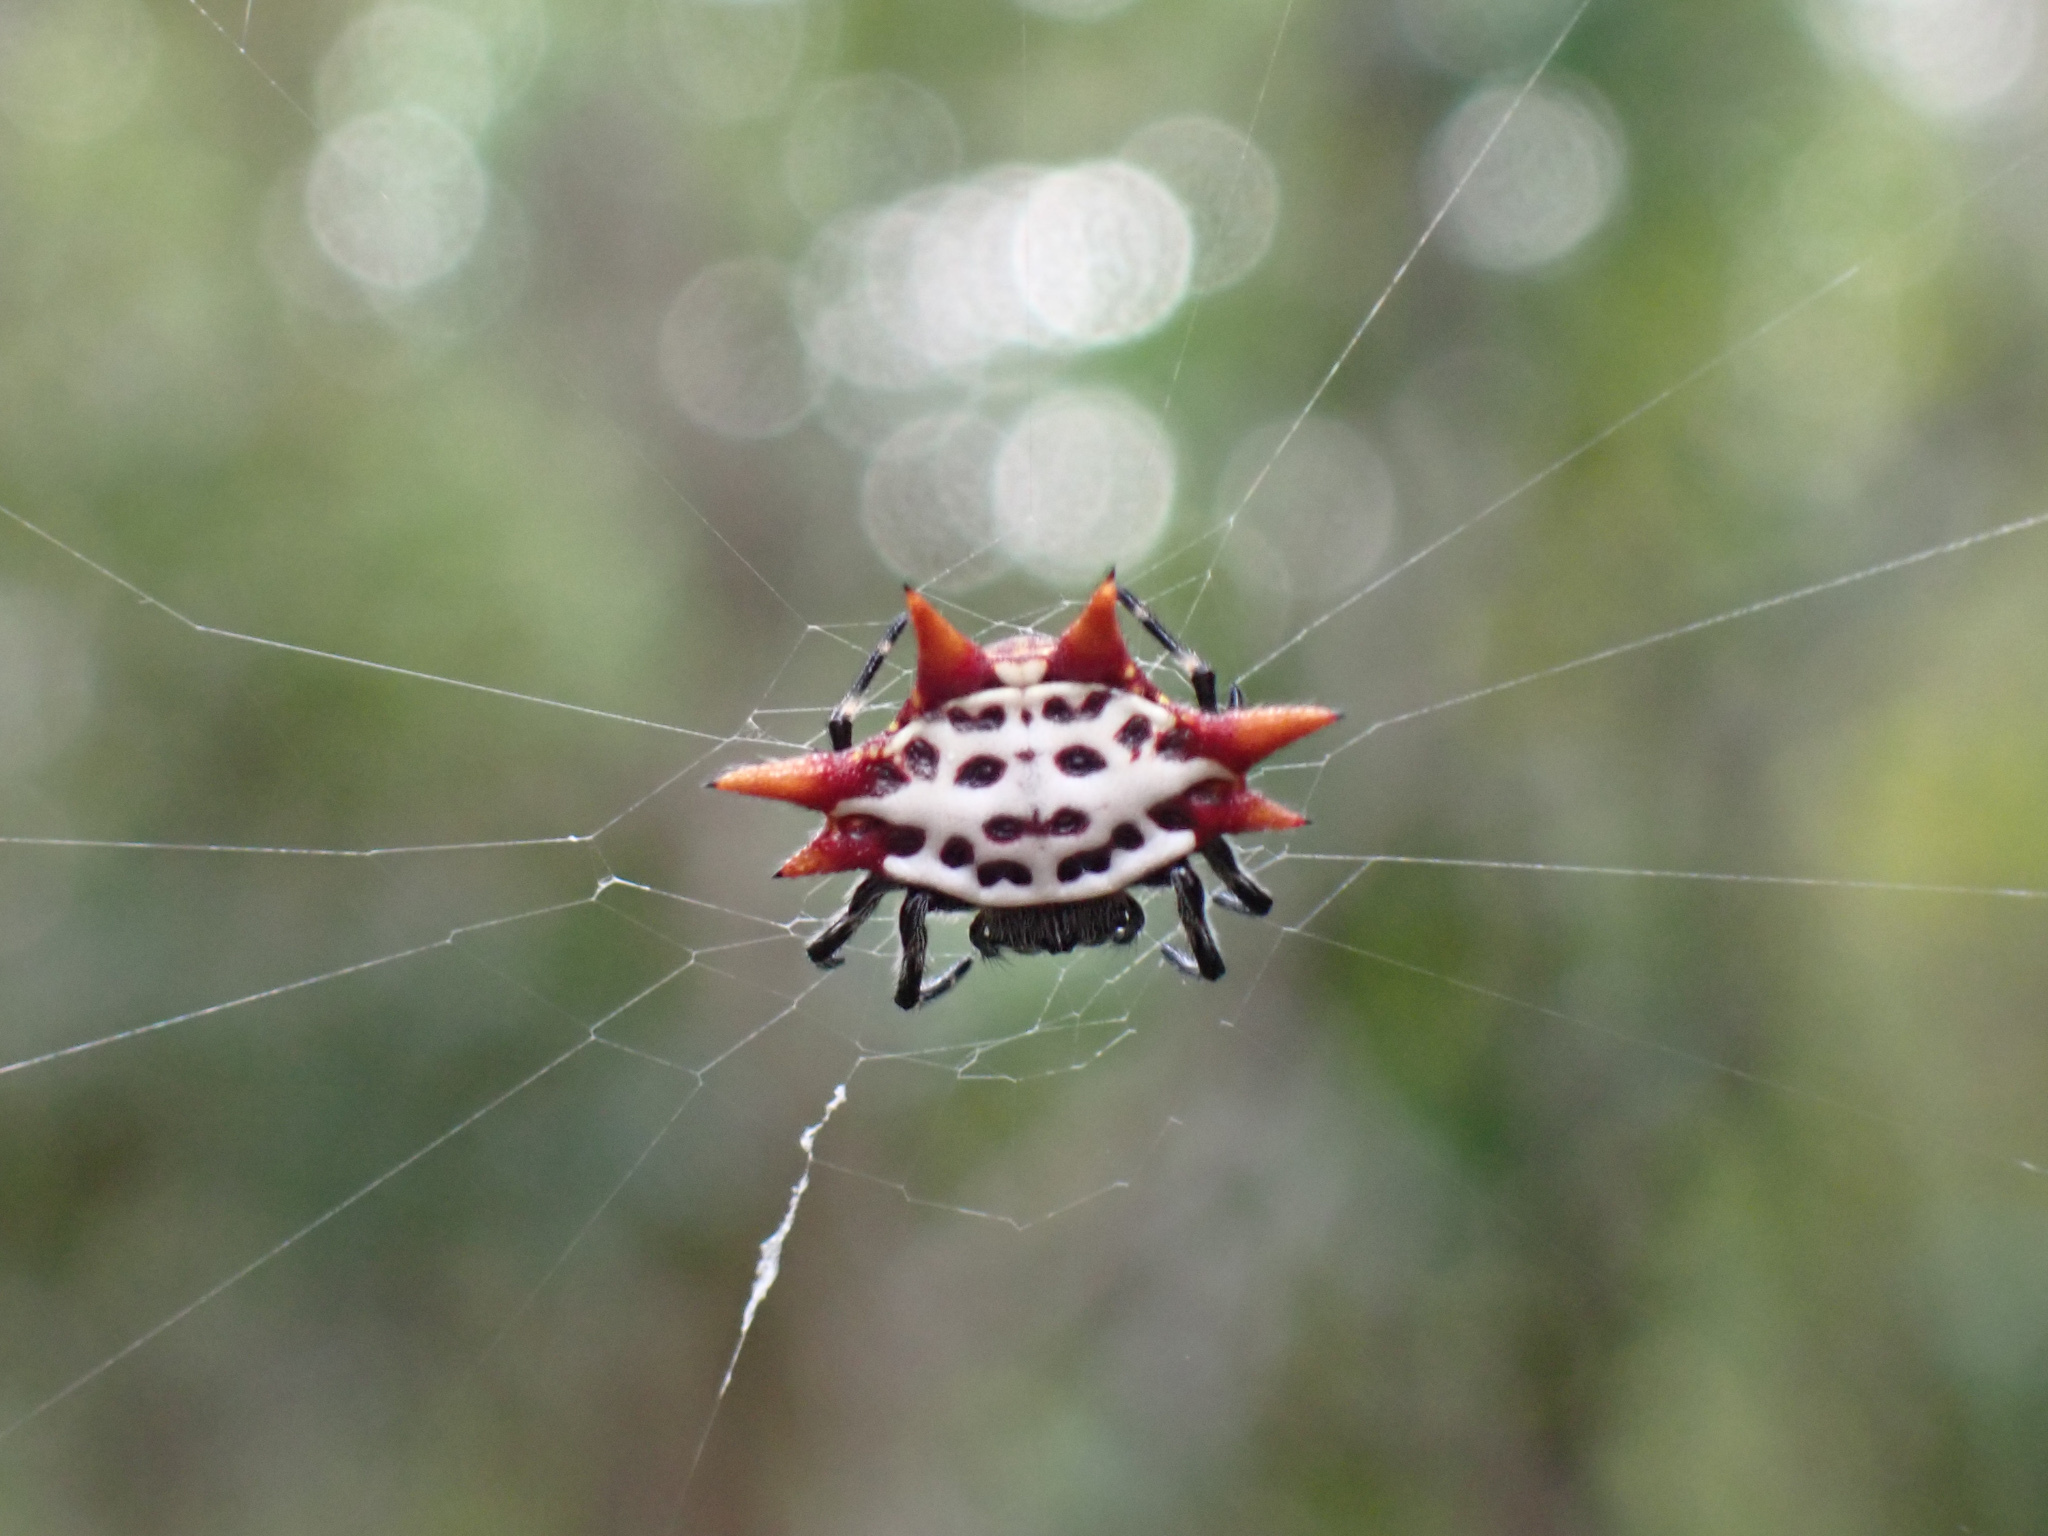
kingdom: Animalia
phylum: Arthropoda
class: Arachnida
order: Araneae
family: Araneidae
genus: Gasteracantha
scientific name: Gasteracantha cancriformis
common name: Orb weavers
